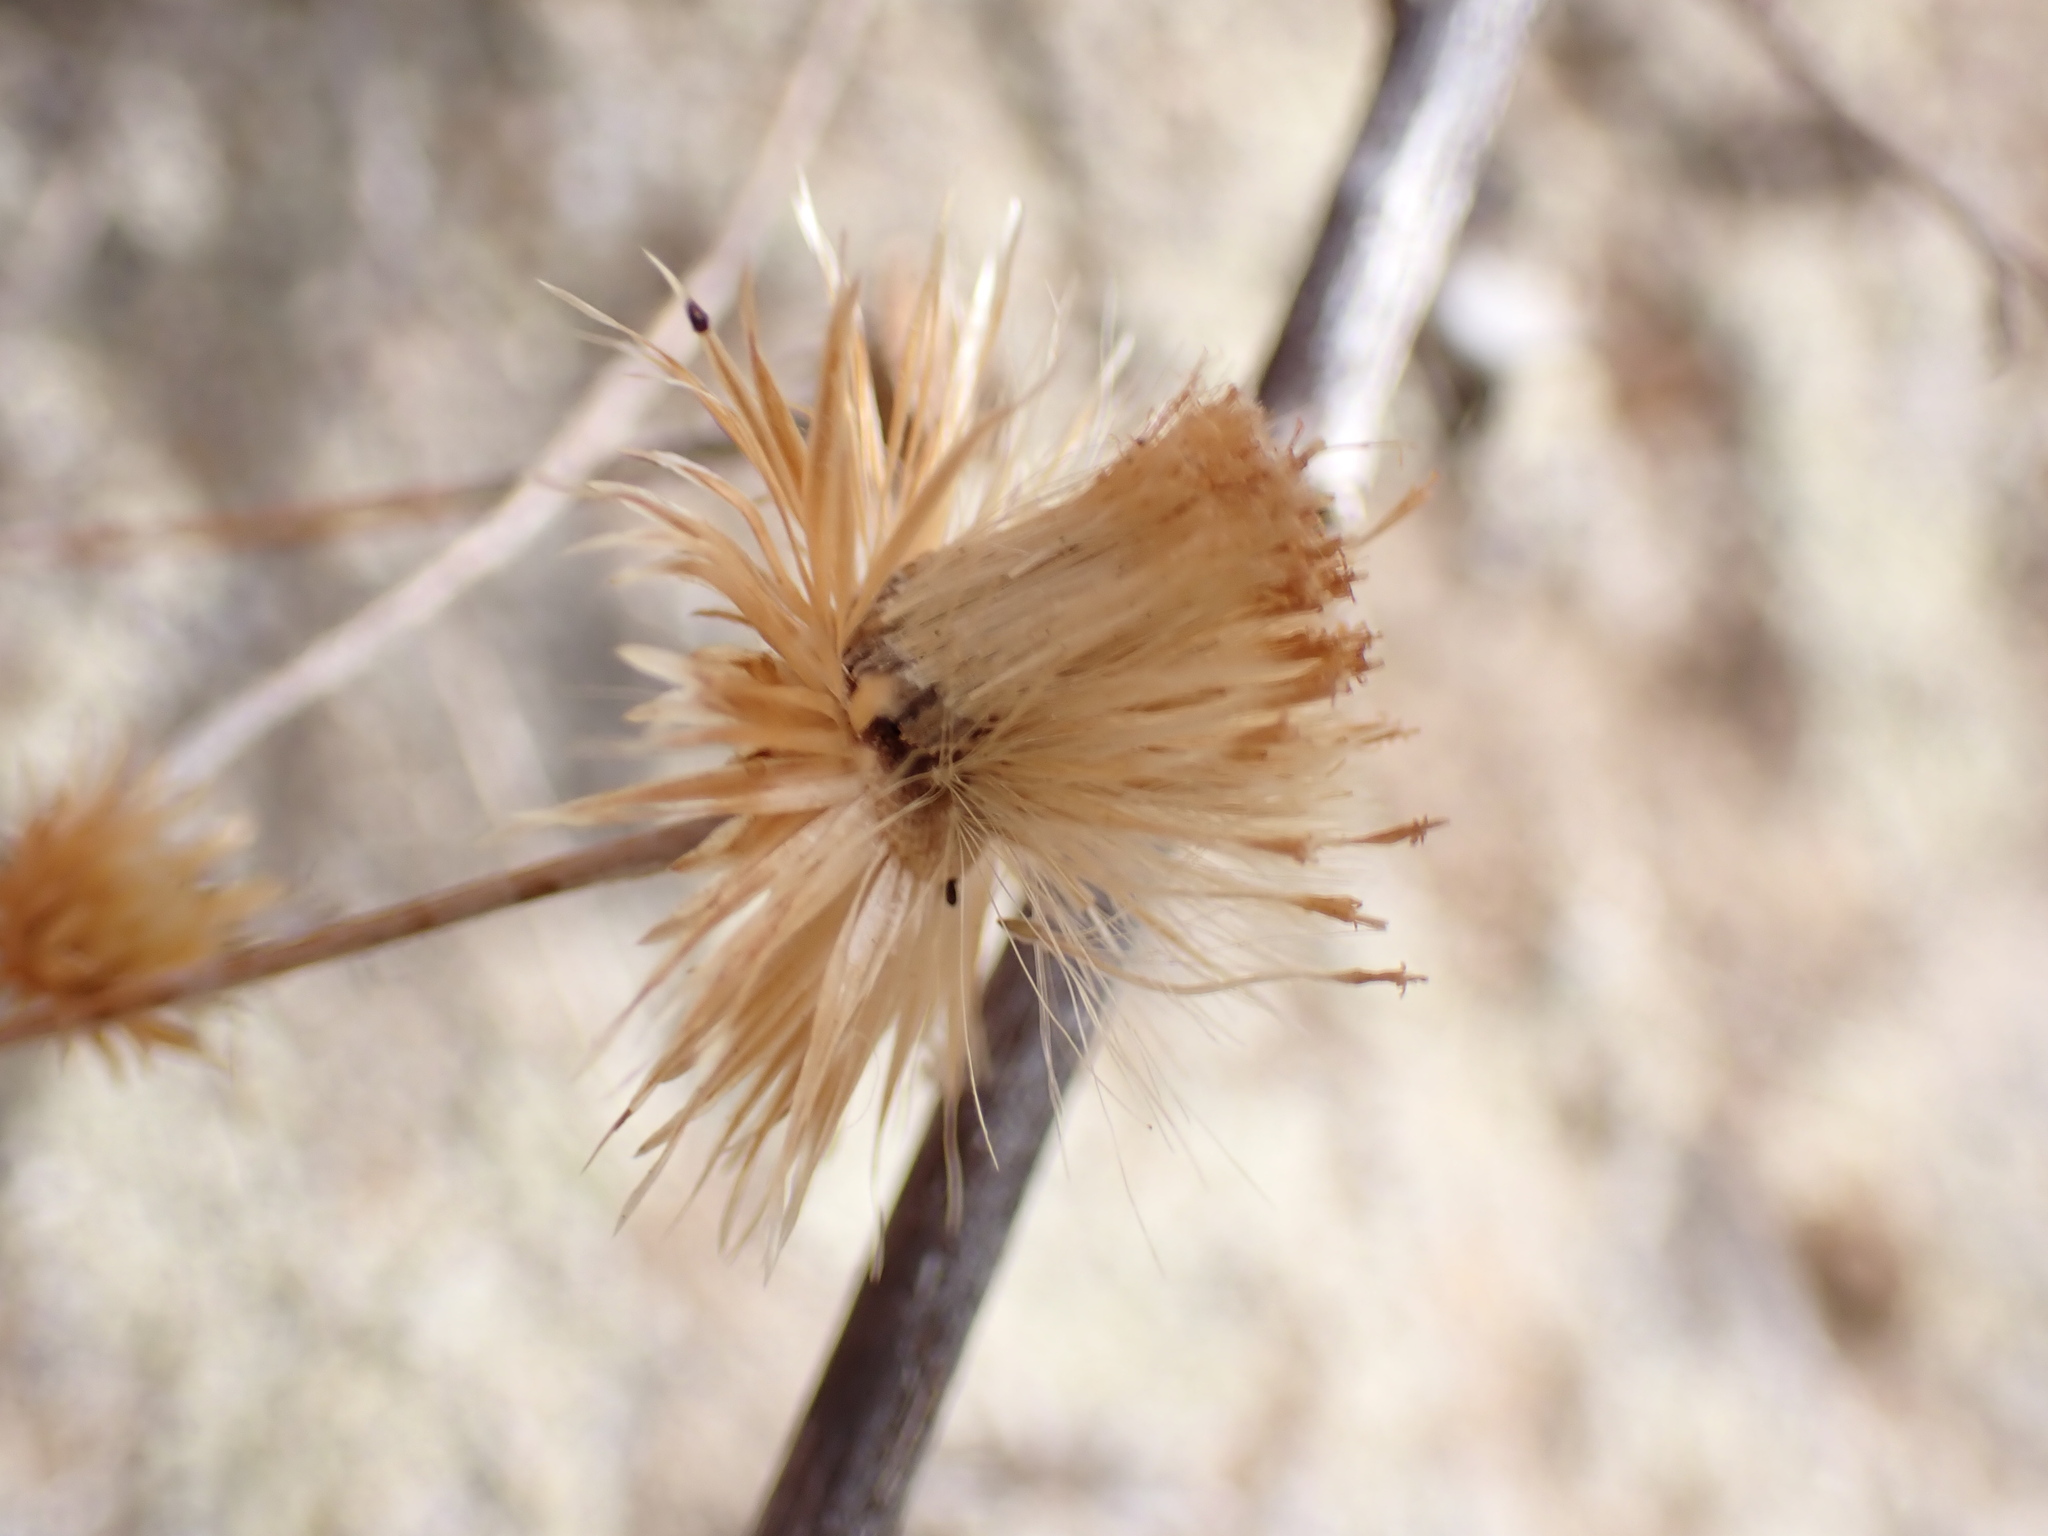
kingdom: Plantae
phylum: Tracheophyta
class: Magnoliopsida
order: Asterales
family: Asteraceae
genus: Phagnalon
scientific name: Phagnalon saxatile
